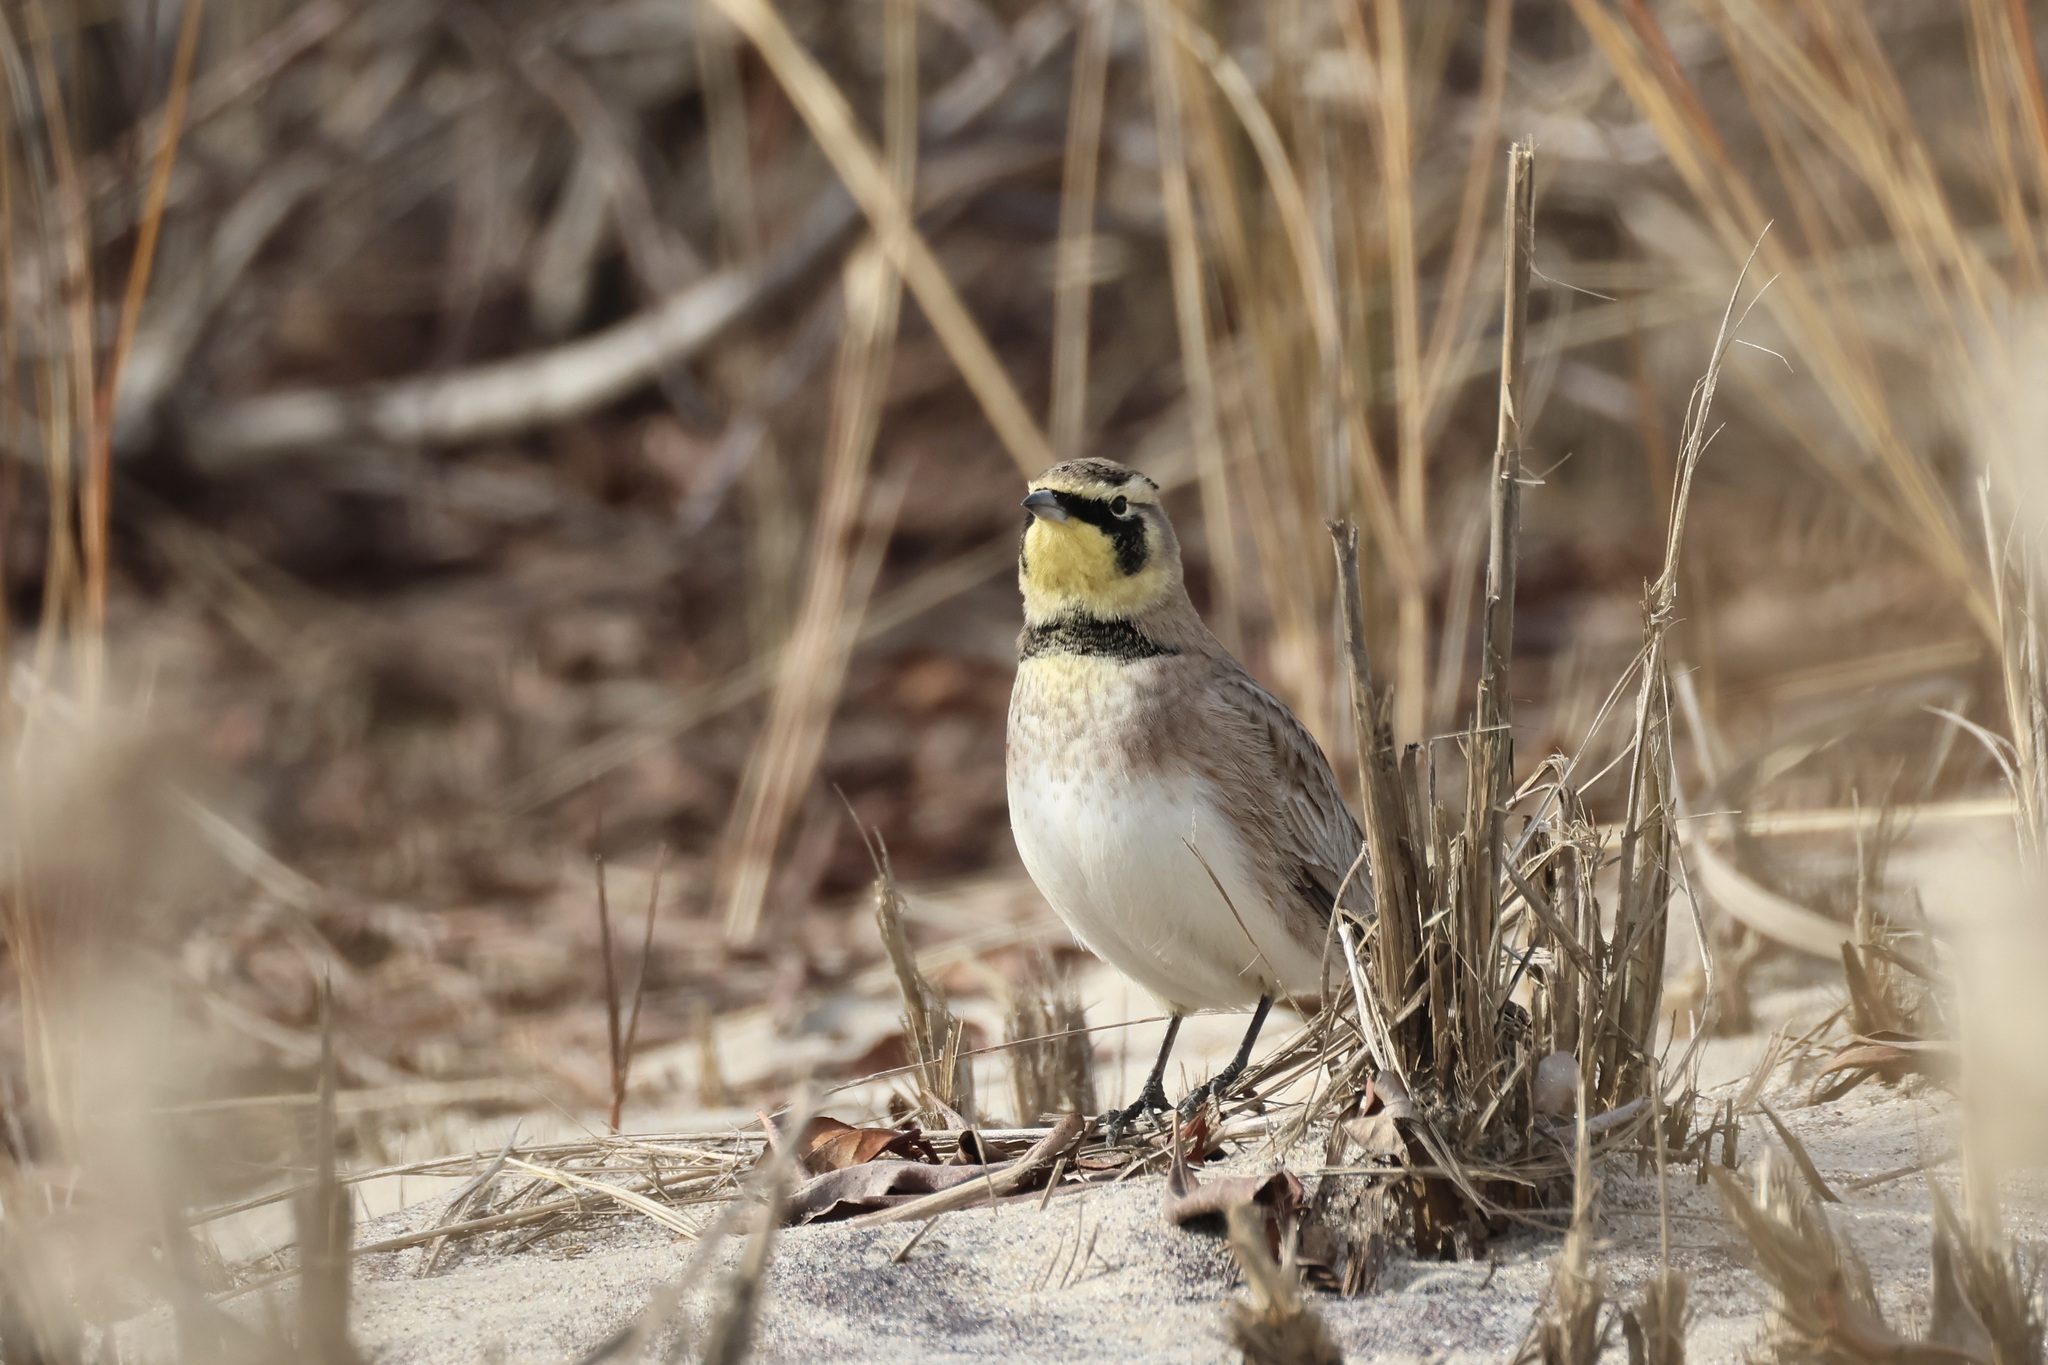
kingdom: Animalia
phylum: Chordata
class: Aves
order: Passeriformes
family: Alaudidae
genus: Eremophila
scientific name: Eremophila alpestris
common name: Horned lark
